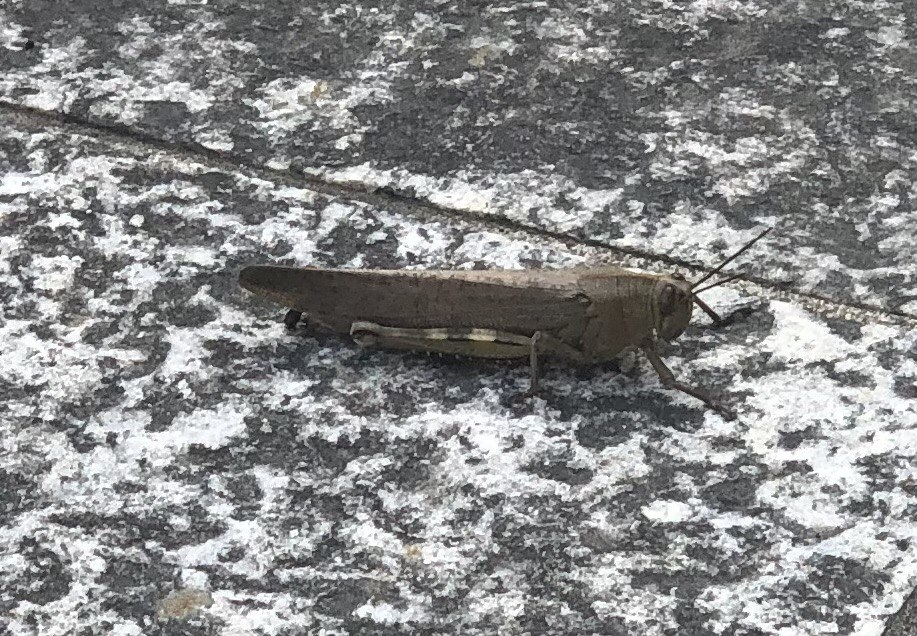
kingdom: Animalia
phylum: Arthropoda
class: Insecta
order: Orthoptera
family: Acrididae
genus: Anacridium
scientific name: Anacridium aegyptium
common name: Egyptian grasshopper
